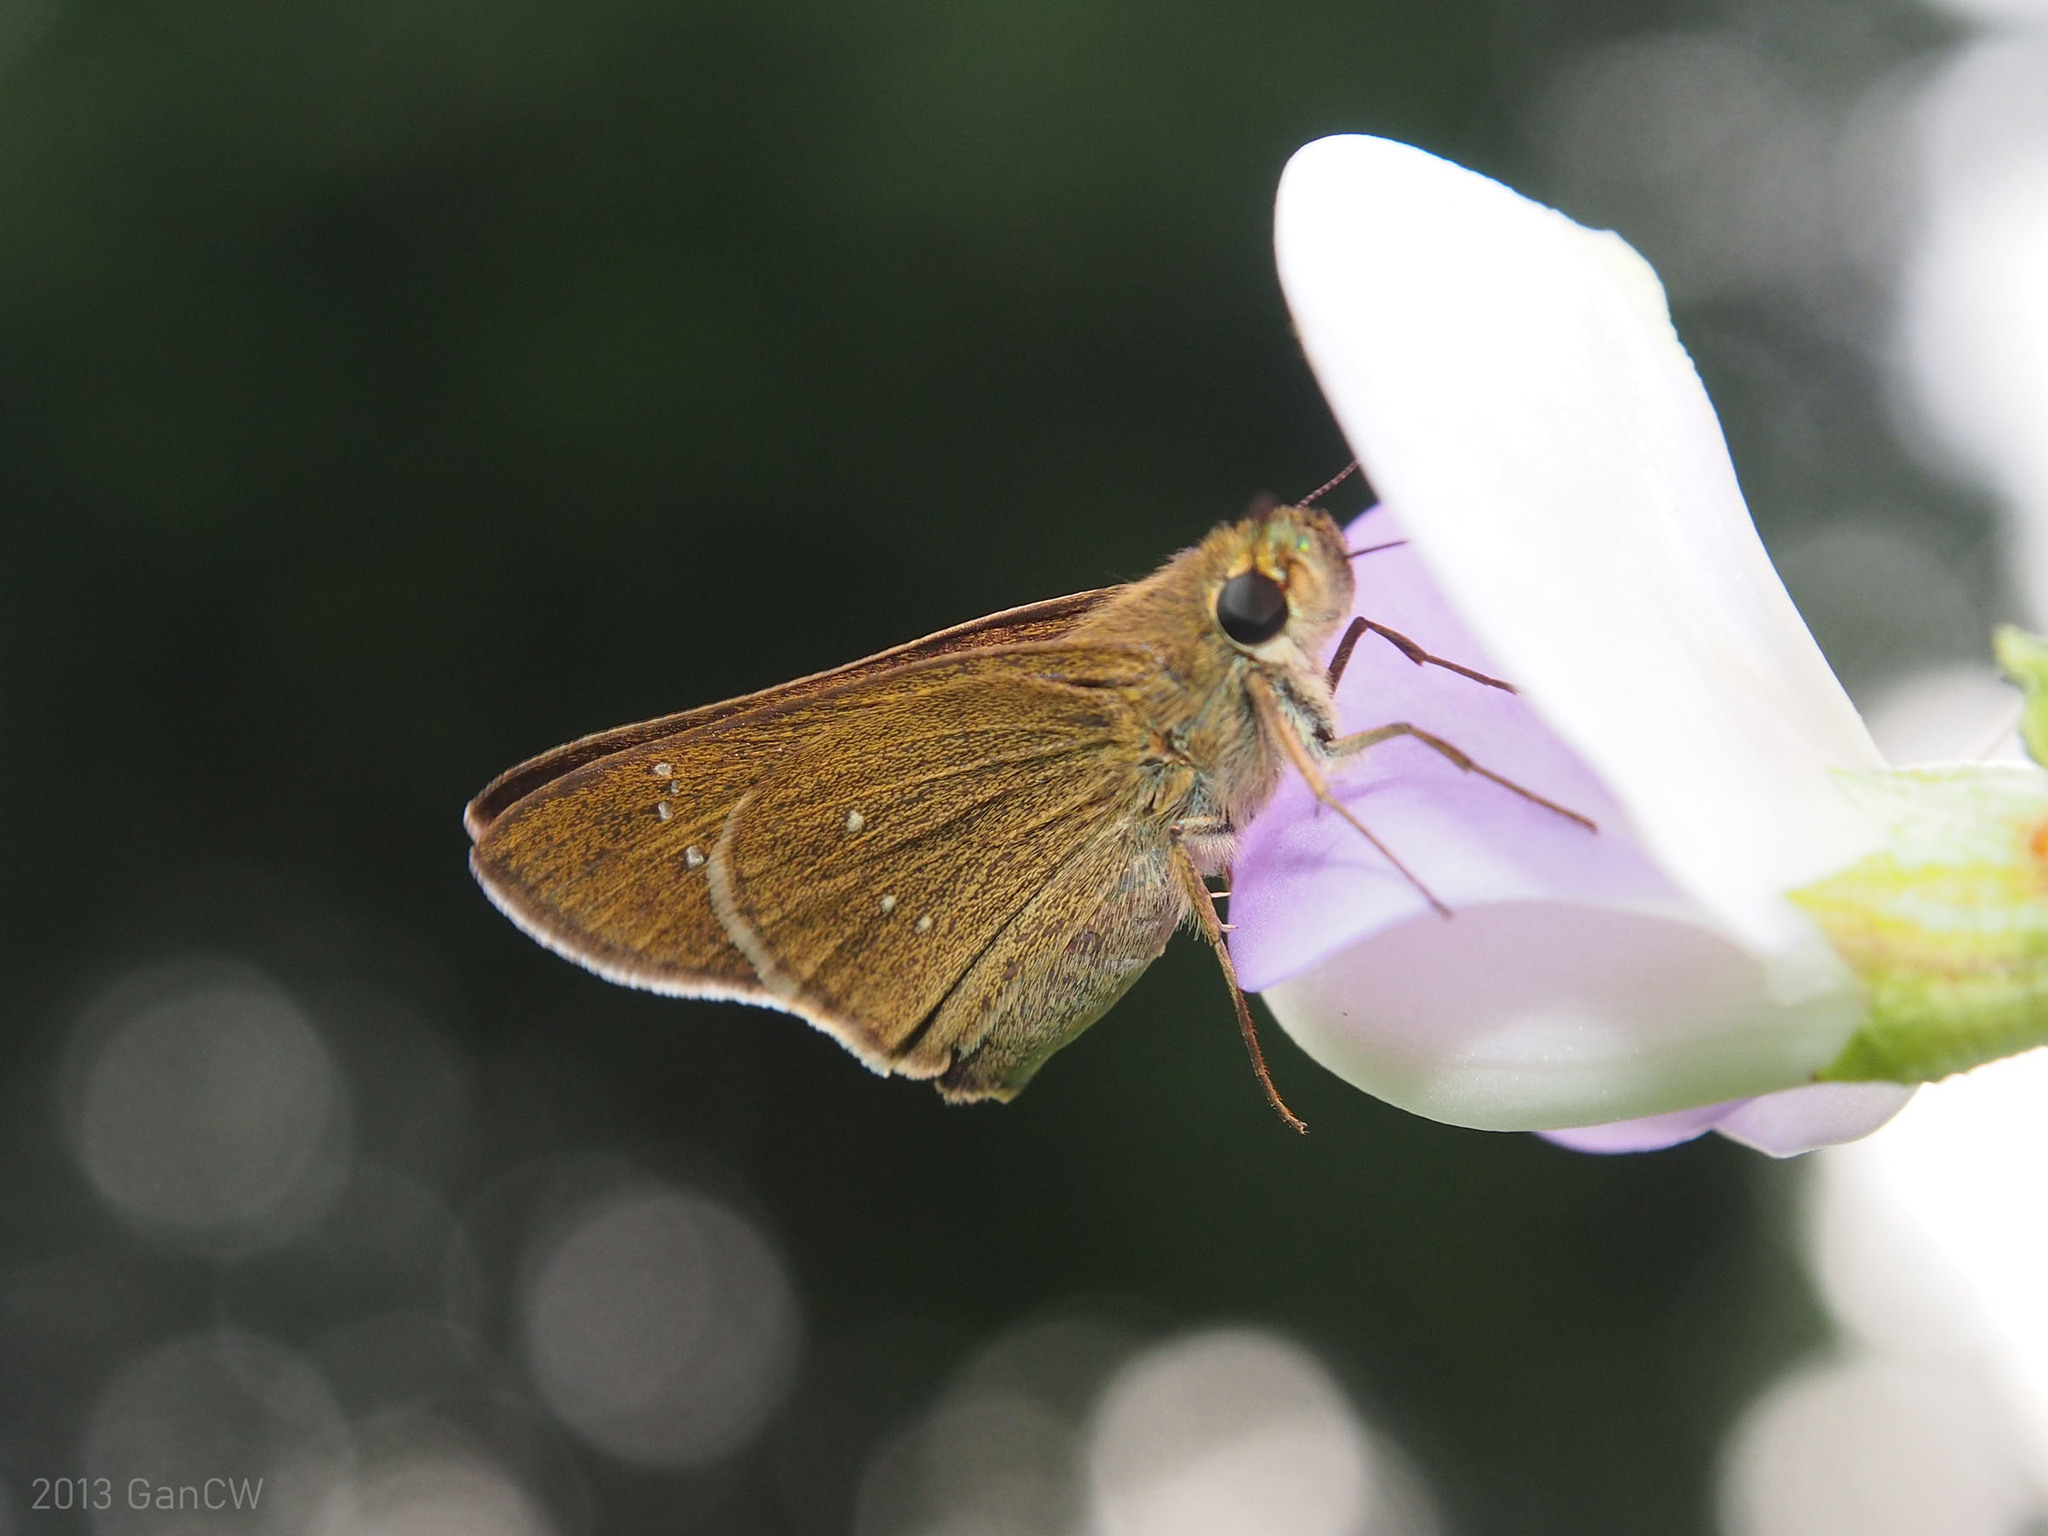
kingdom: Animalia
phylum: Arthropoda
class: Insecta
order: Lepidoptera
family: Hesperiidae
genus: Borbo
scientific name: Borbo cinnara
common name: Formosan swift
